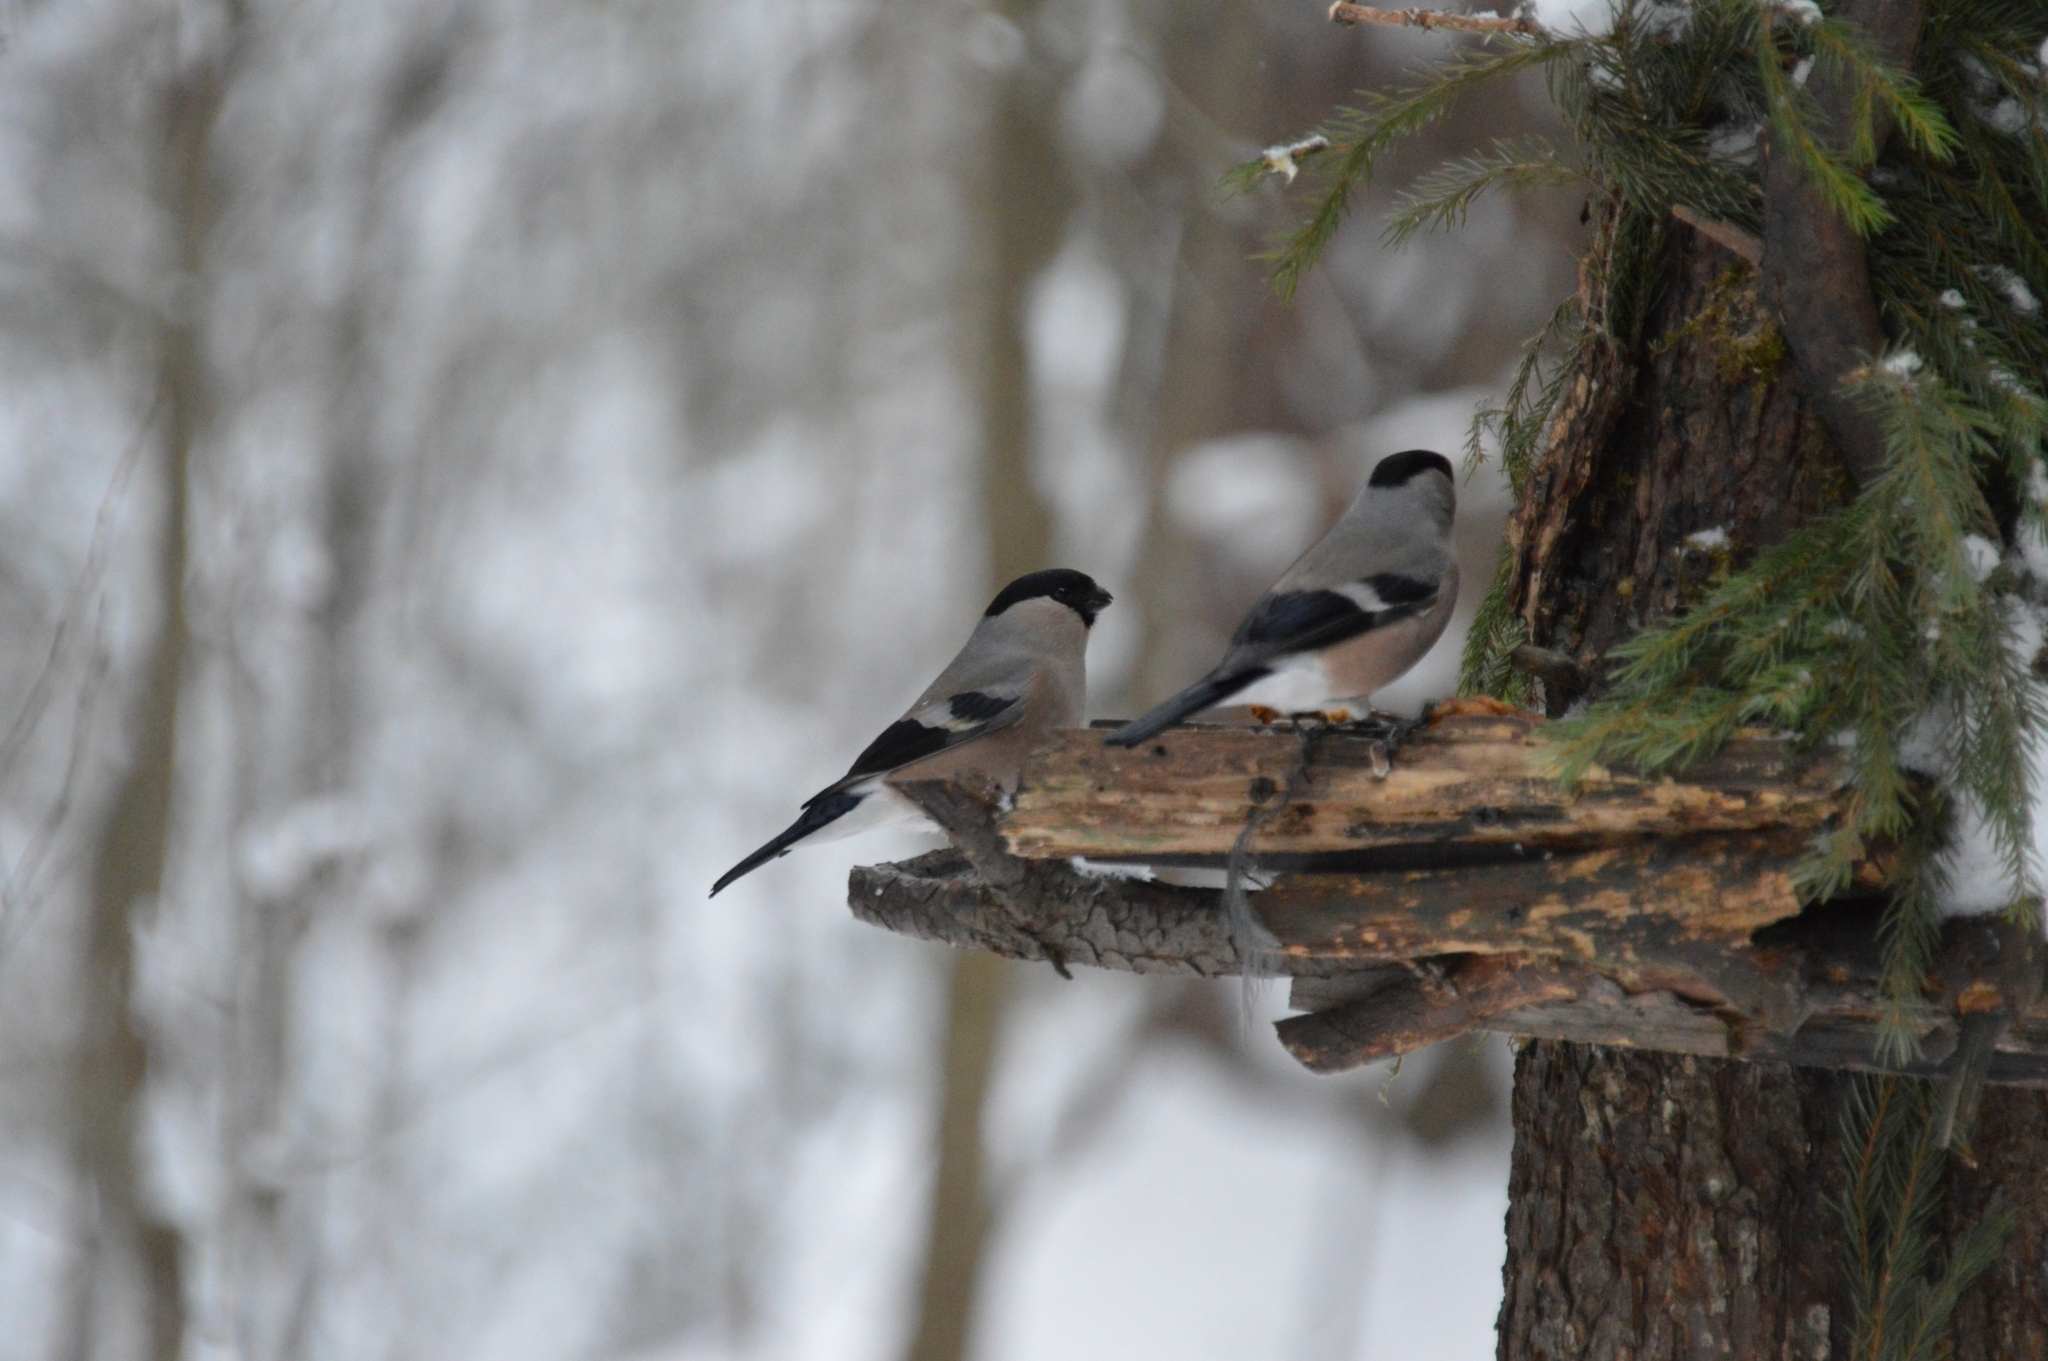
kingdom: Animalia
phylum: Chordata
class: Aves
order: Passeriformes
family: Fringillidae
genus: Pyrrhula
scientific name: Pyrrhula pyrrhula
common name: Eurasian bullfinch
